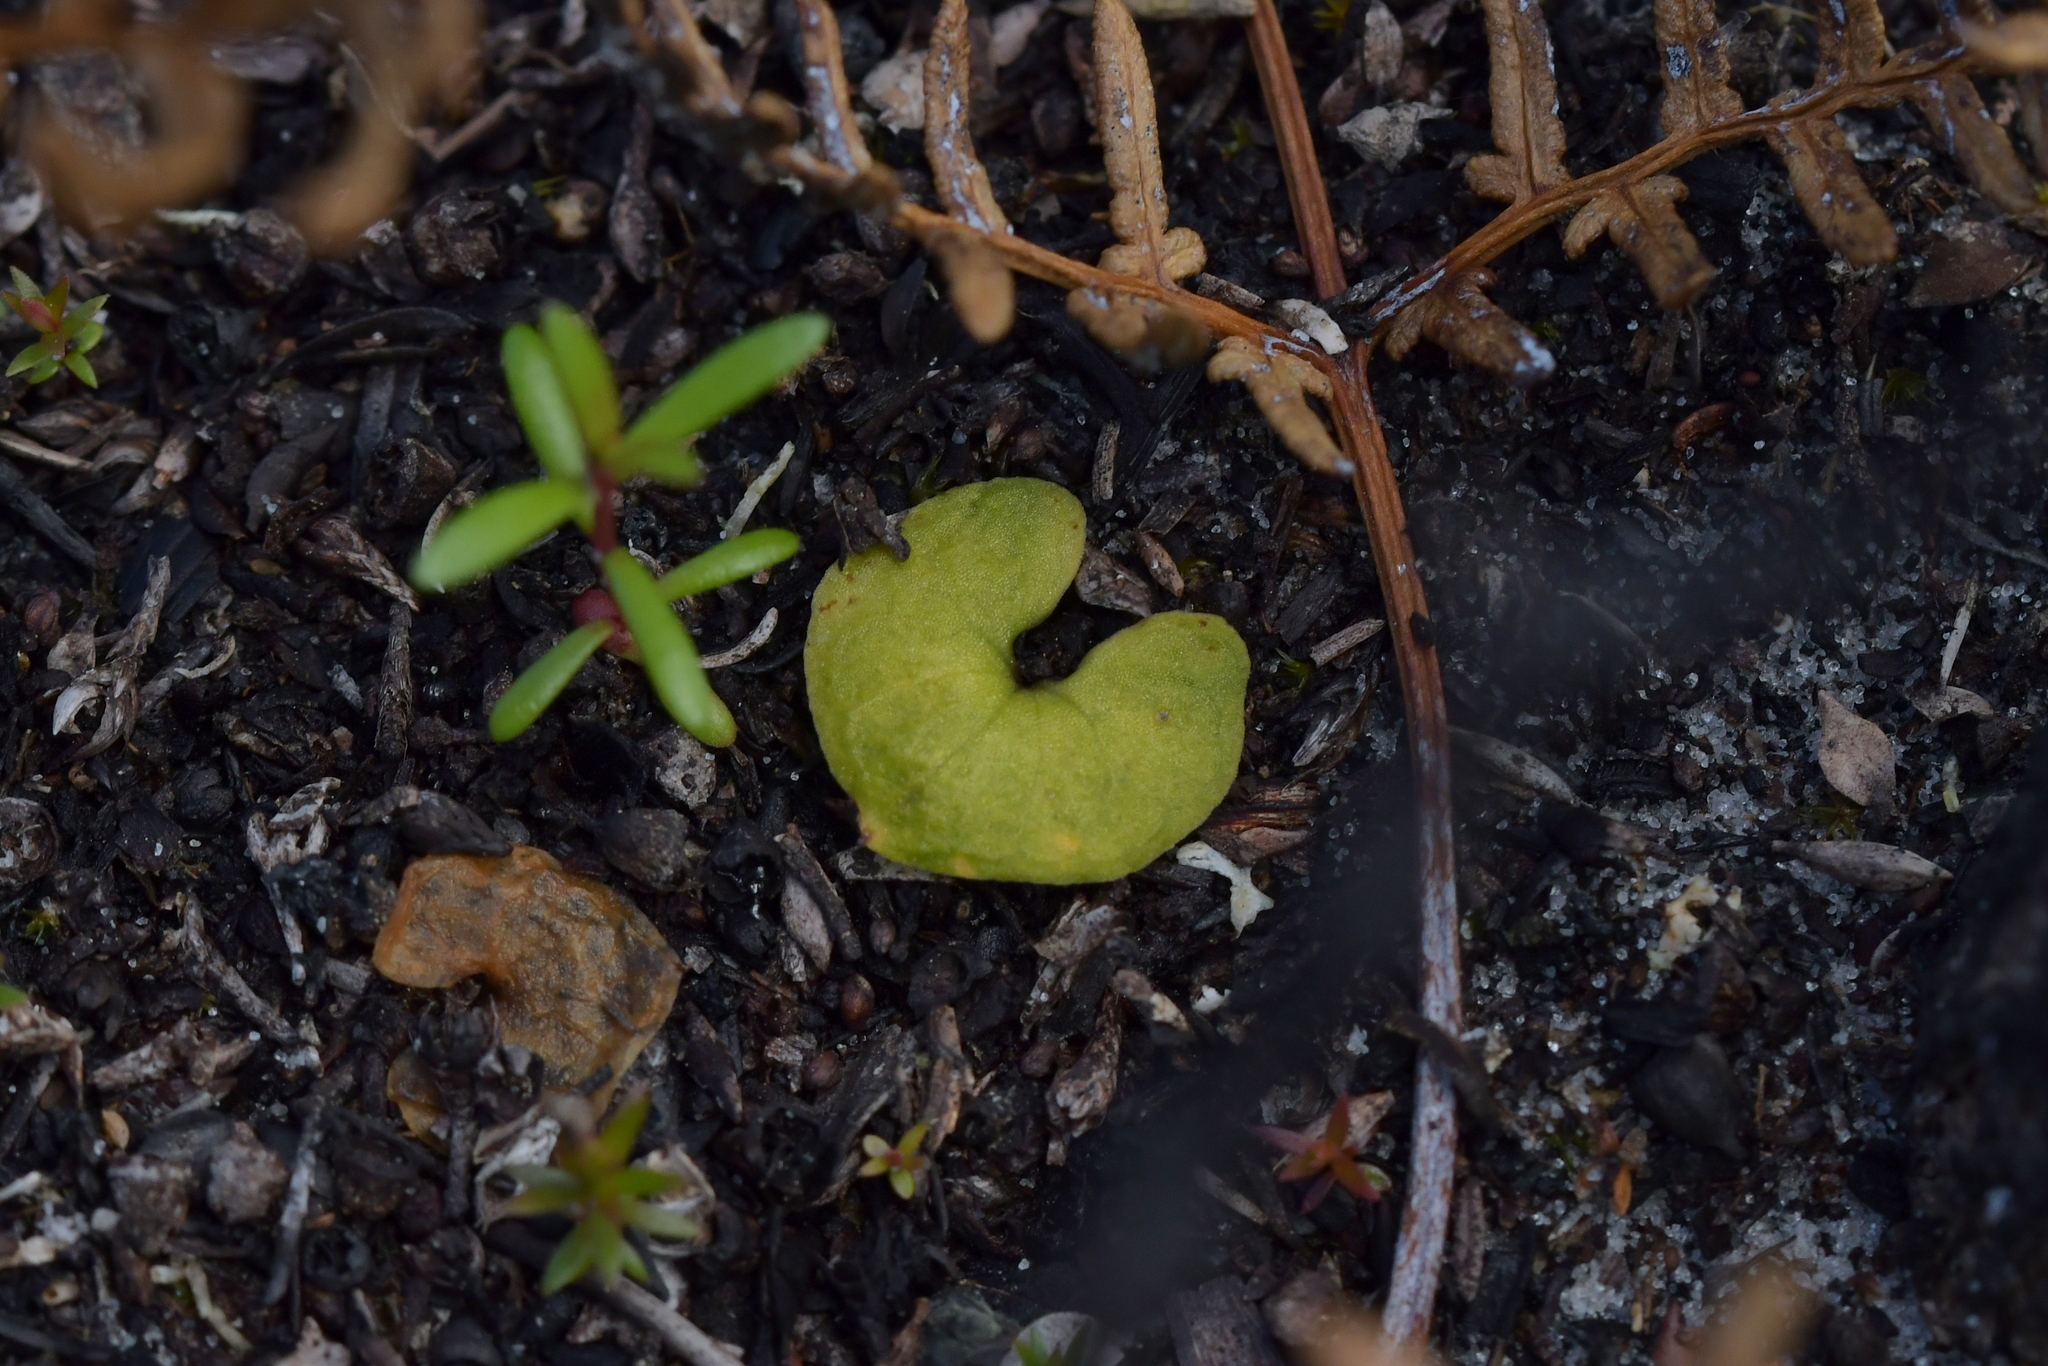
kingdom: Plantae
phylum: Tracheophyta
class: Liliopsida
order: Asparagales
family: Orchidaceae
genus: Acianthus
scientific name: Acianthus sinclairii
